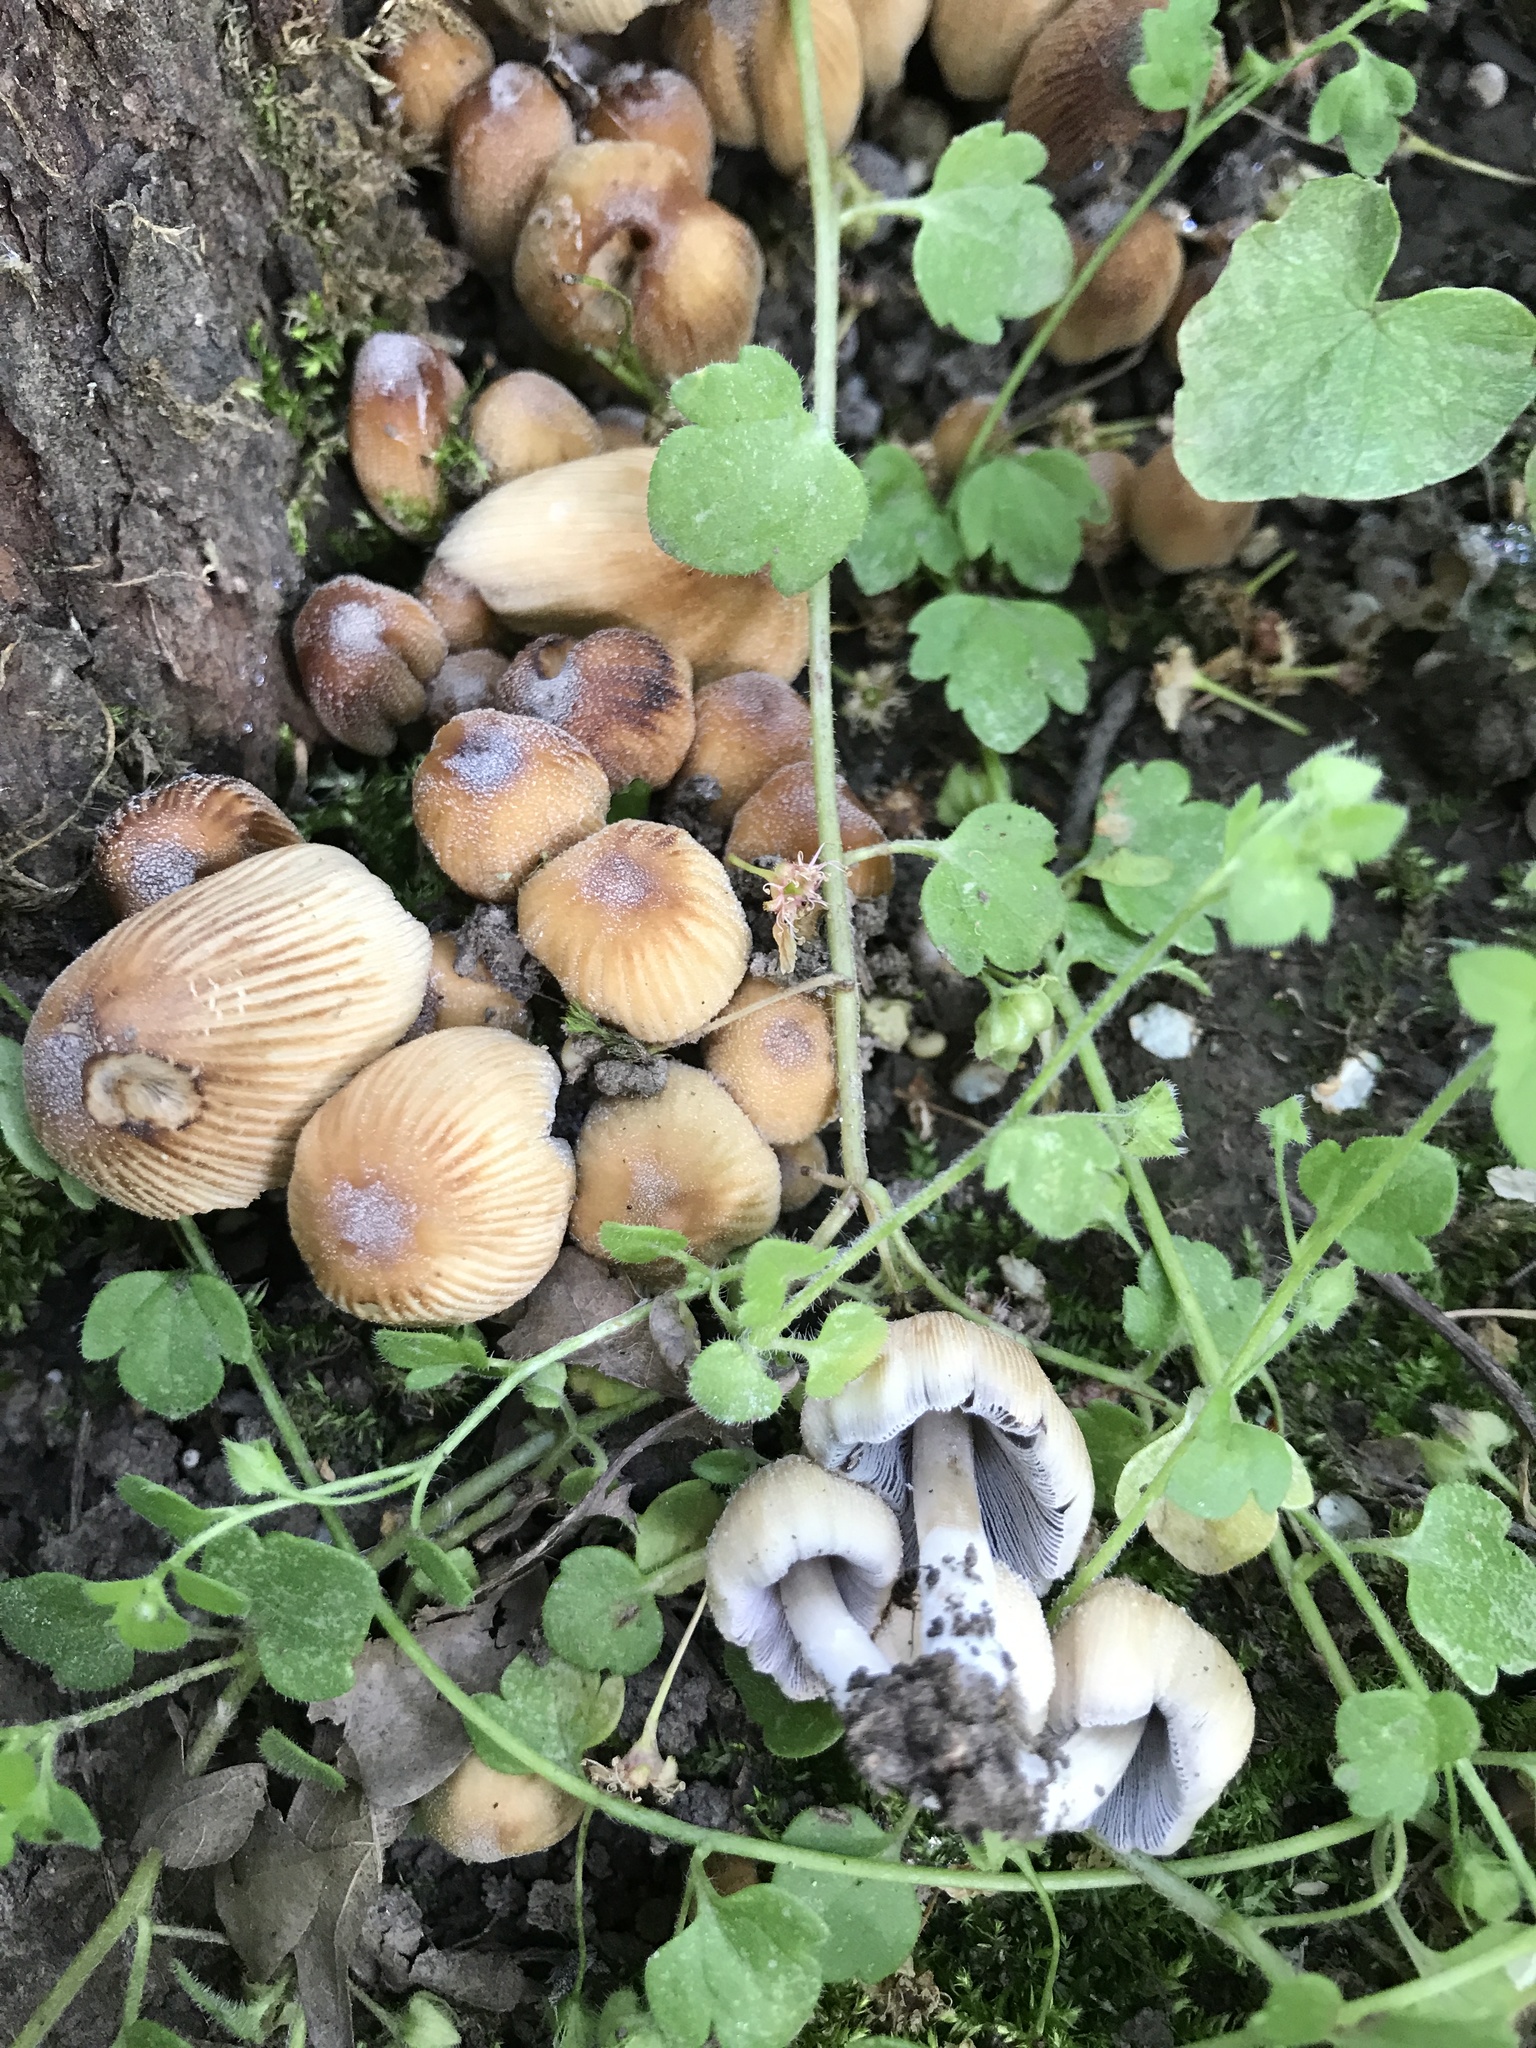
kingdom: Fungi
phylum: Basidiomycota
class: Agaricomycetes
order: Agaricales
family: Psathyrellaceae
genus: Coprinellus
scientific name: Coprinellus micaceus
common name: Glistening ink-cap
